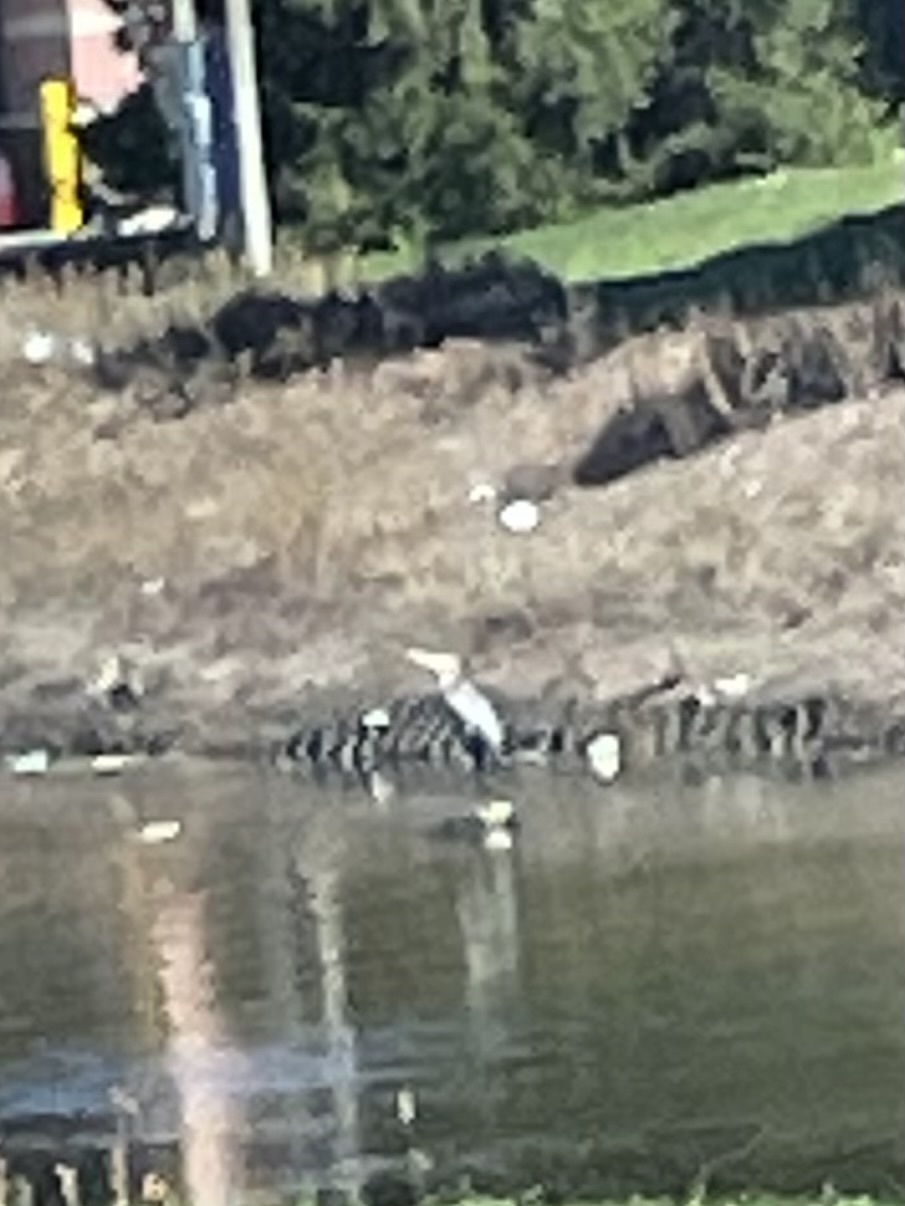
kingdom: Animalia
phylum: Chordata
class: Aves
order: Pelecaniformes
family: Ardeidae
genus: Ardea
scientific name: Ardea herodias
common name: Great blue heron
